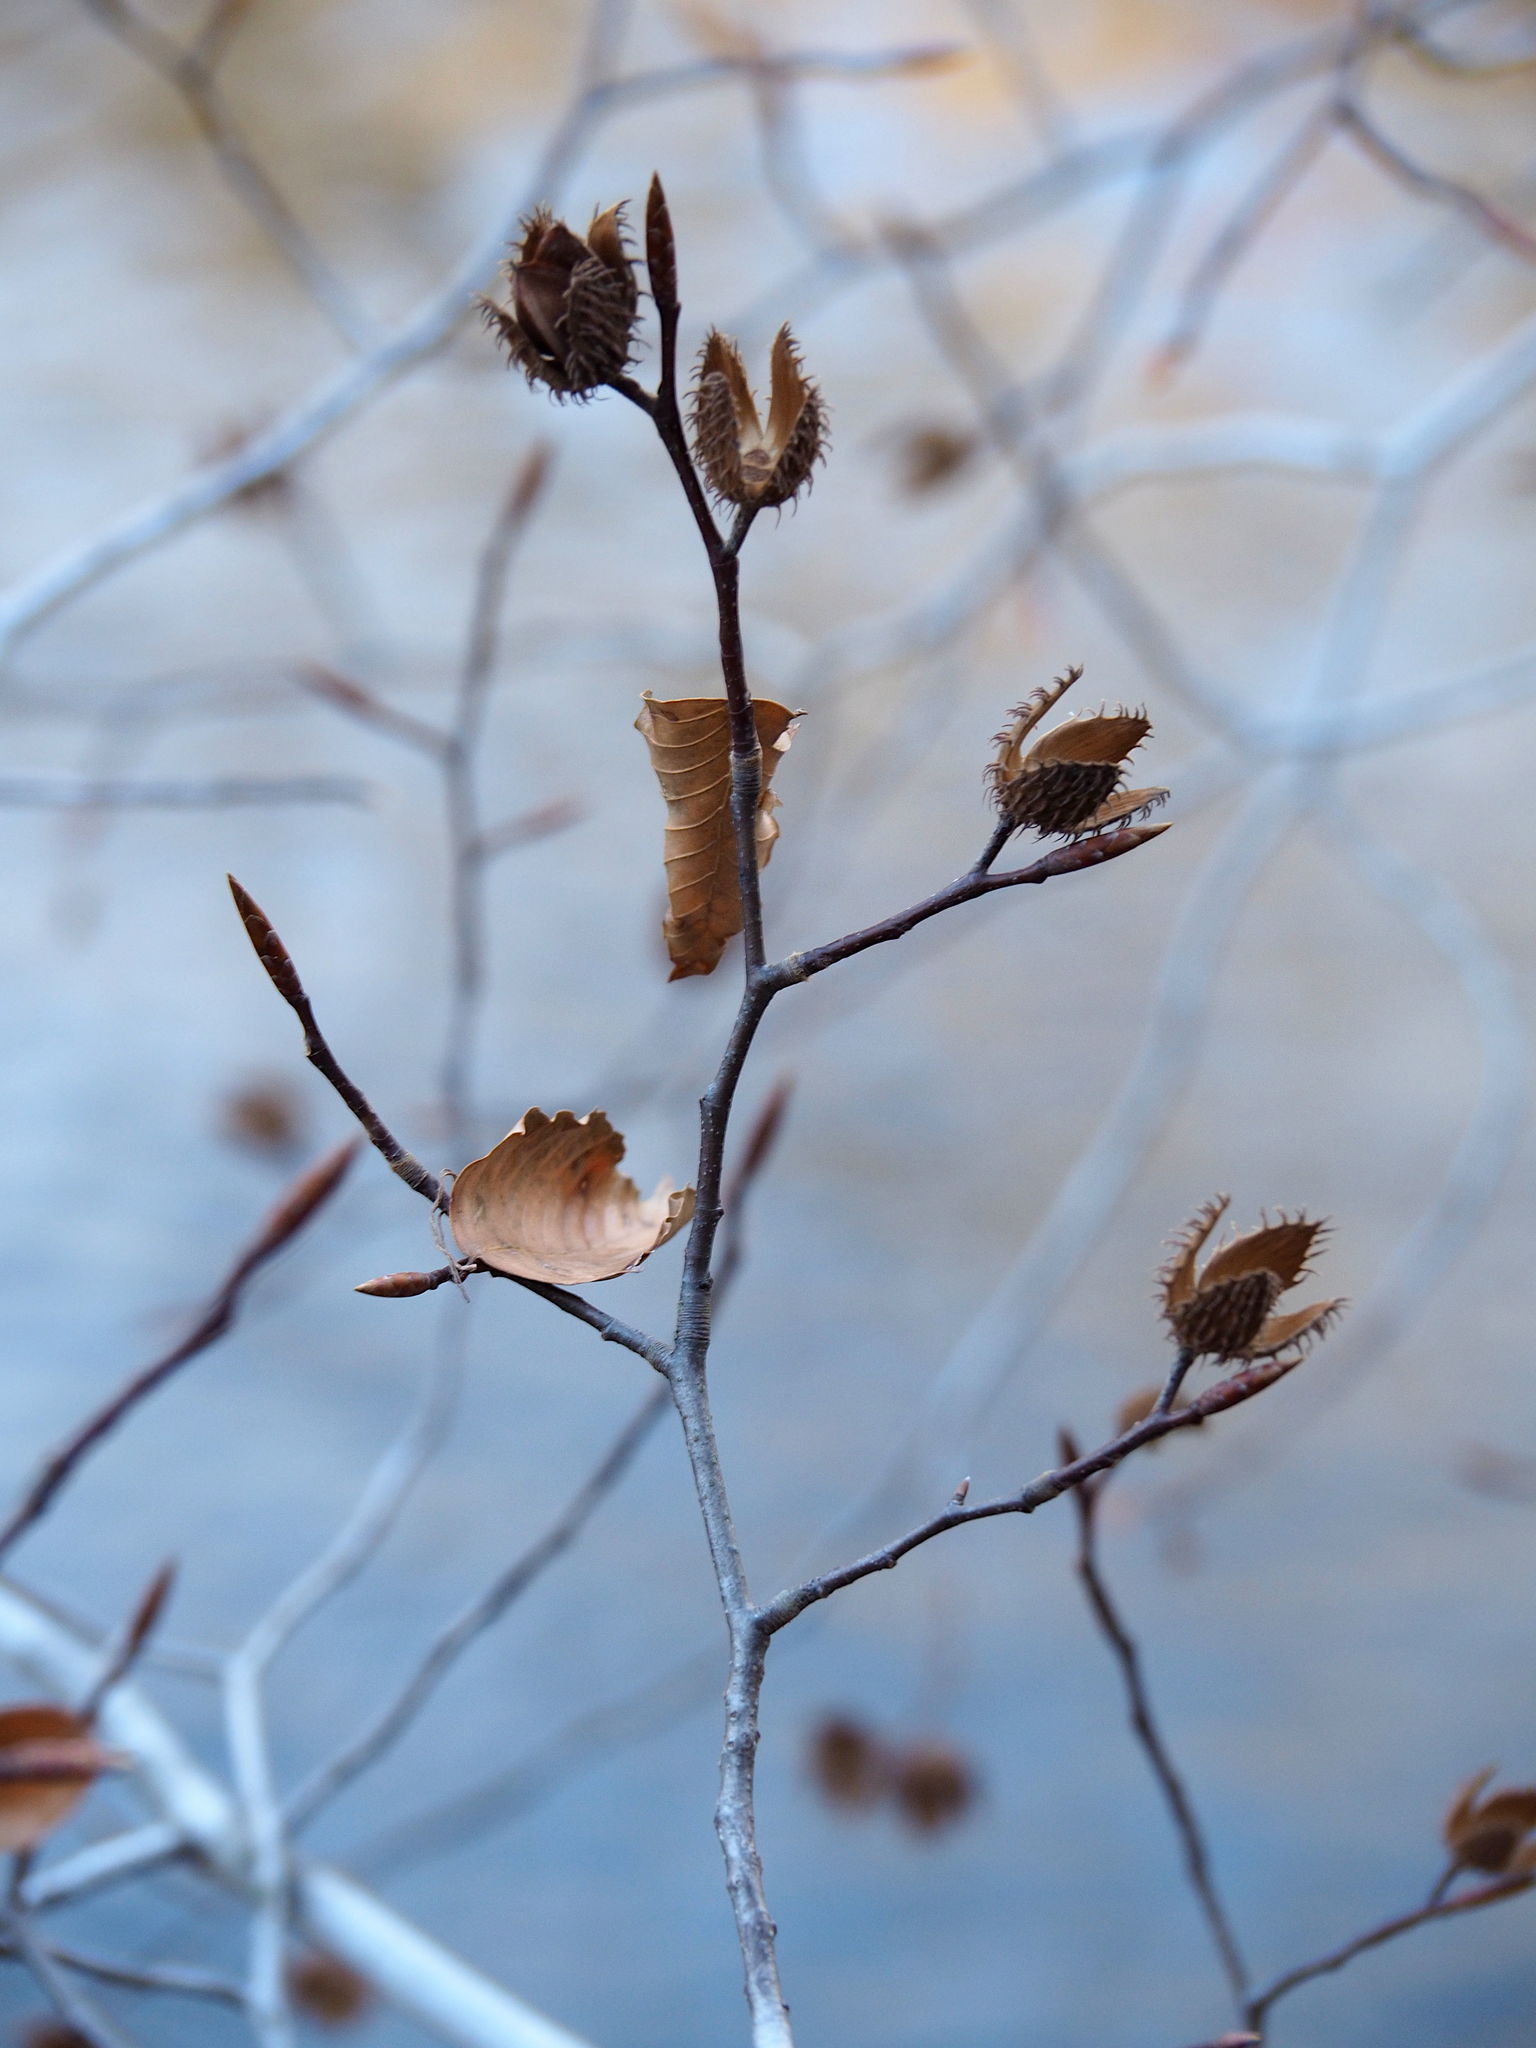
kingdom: Plantae
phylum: Tracheophyta
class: Magnoliopsida
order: Fagales
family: Fagaceae
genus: Fagus
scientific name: Fagus grandifolia
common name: American beech
